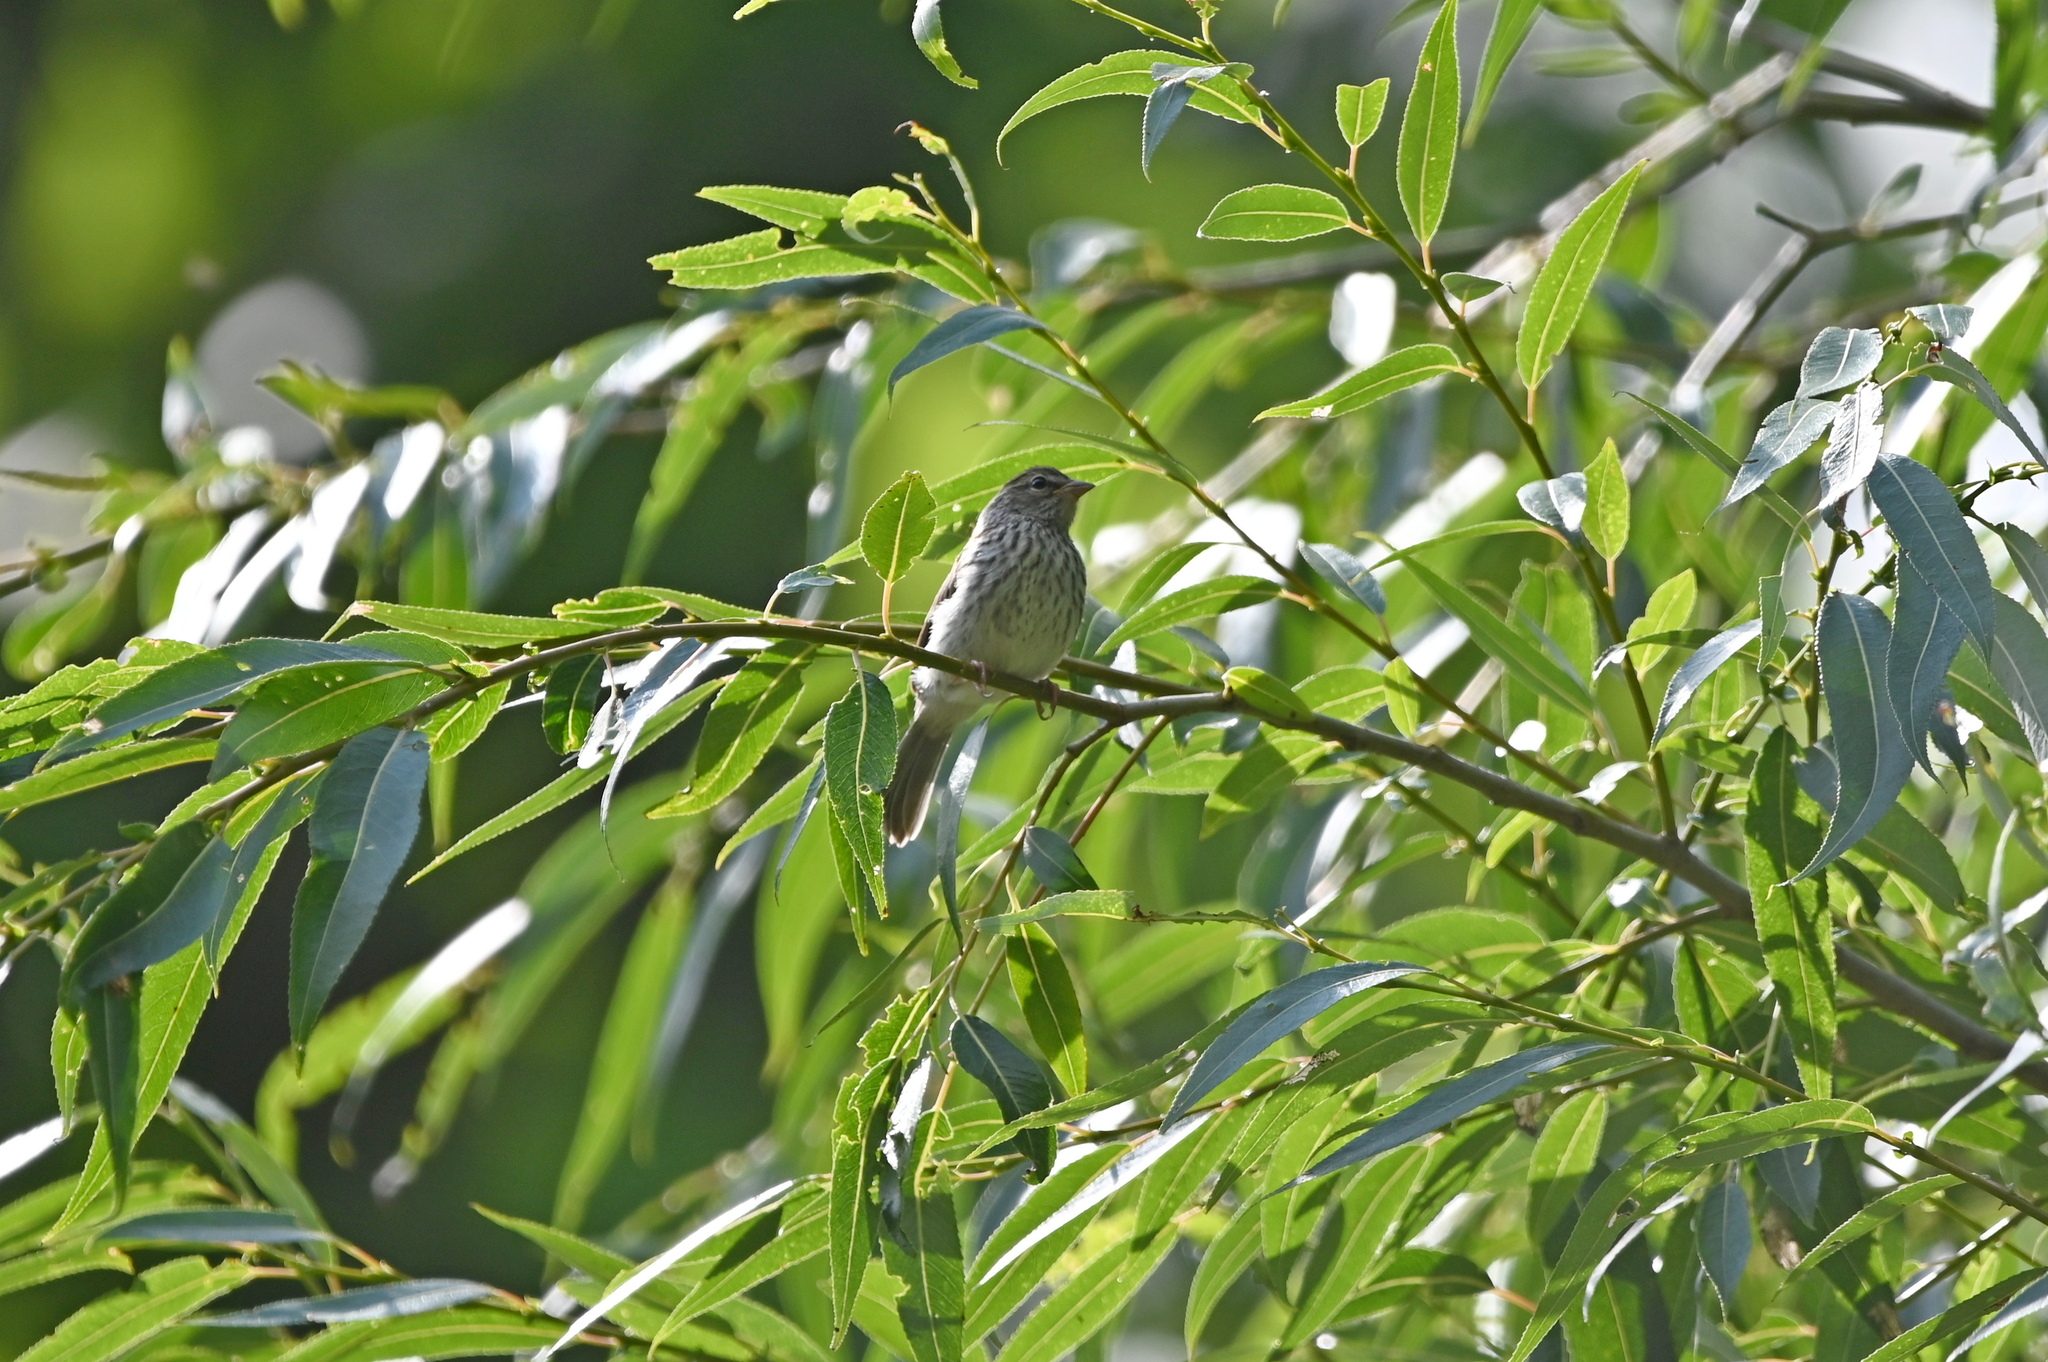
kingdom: Animalia
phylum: Chordata
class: Aves
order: Passeriformes
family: Passerellidae
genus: Spizella
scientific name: Spizella passerina
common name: Chipping sparrow
